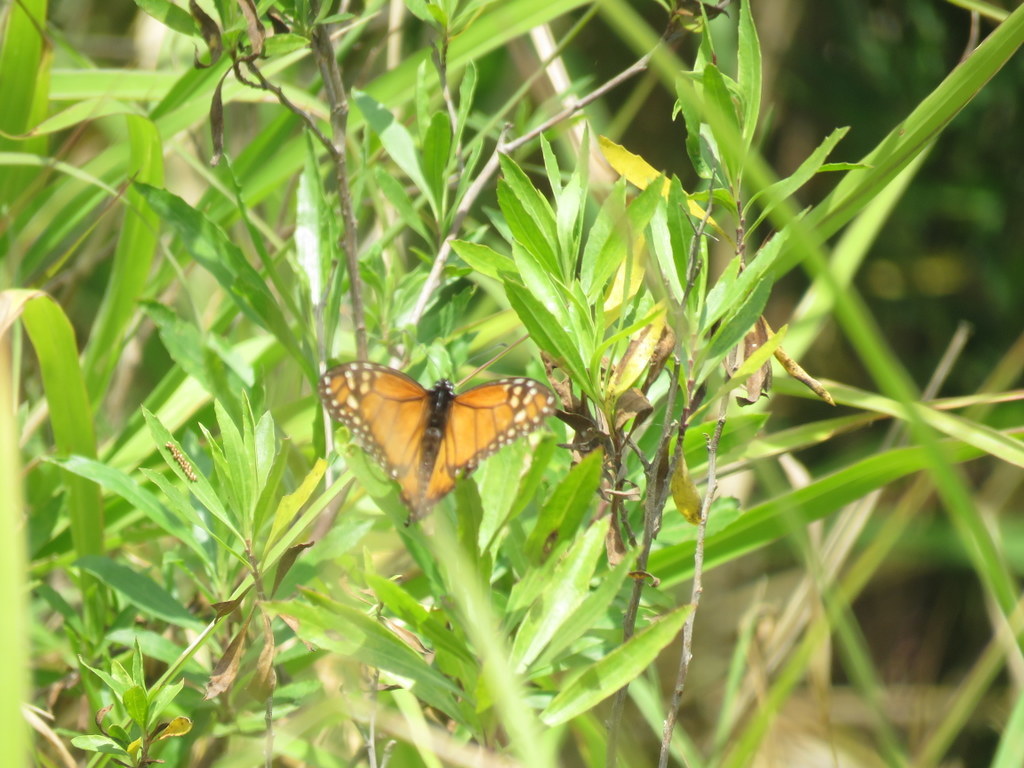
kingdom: Animalia
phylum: Arthropoda
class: Insecta
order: Lepidoptera
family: Nymphalidae
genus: Danaus
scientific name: Danaus erippus
